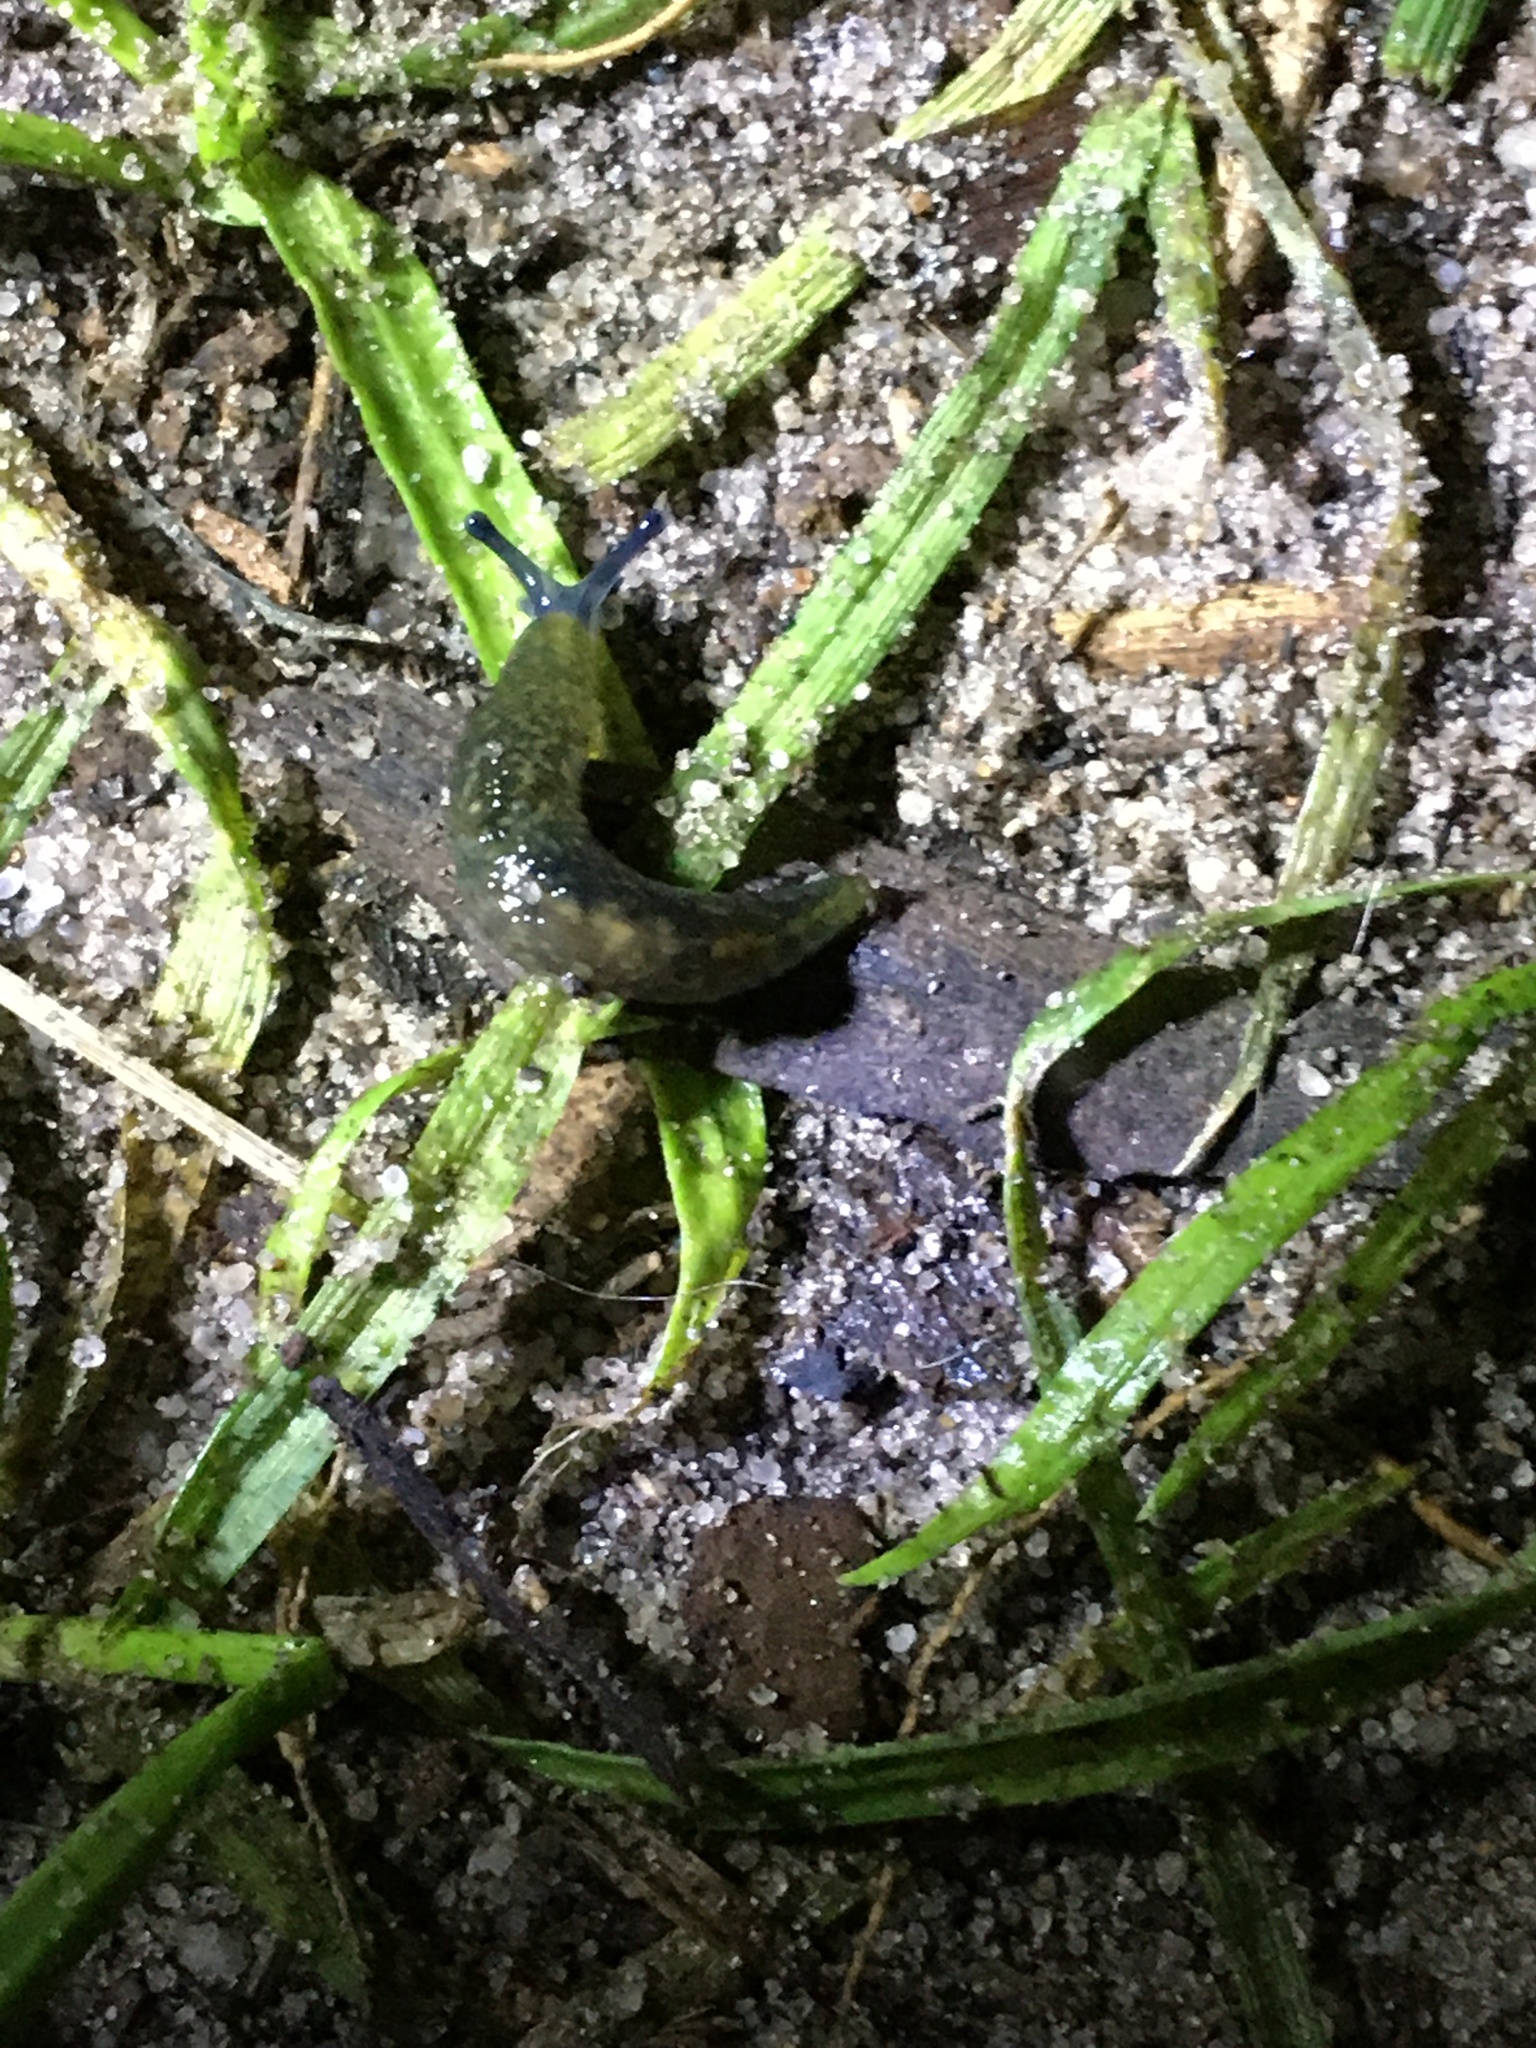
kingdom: Animalia
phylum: Mollusca
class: Gastropoda
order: Stylommatophora
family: Limacidae
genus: Limacus
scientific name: Limacus flavus
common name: Yellow gardenslug
